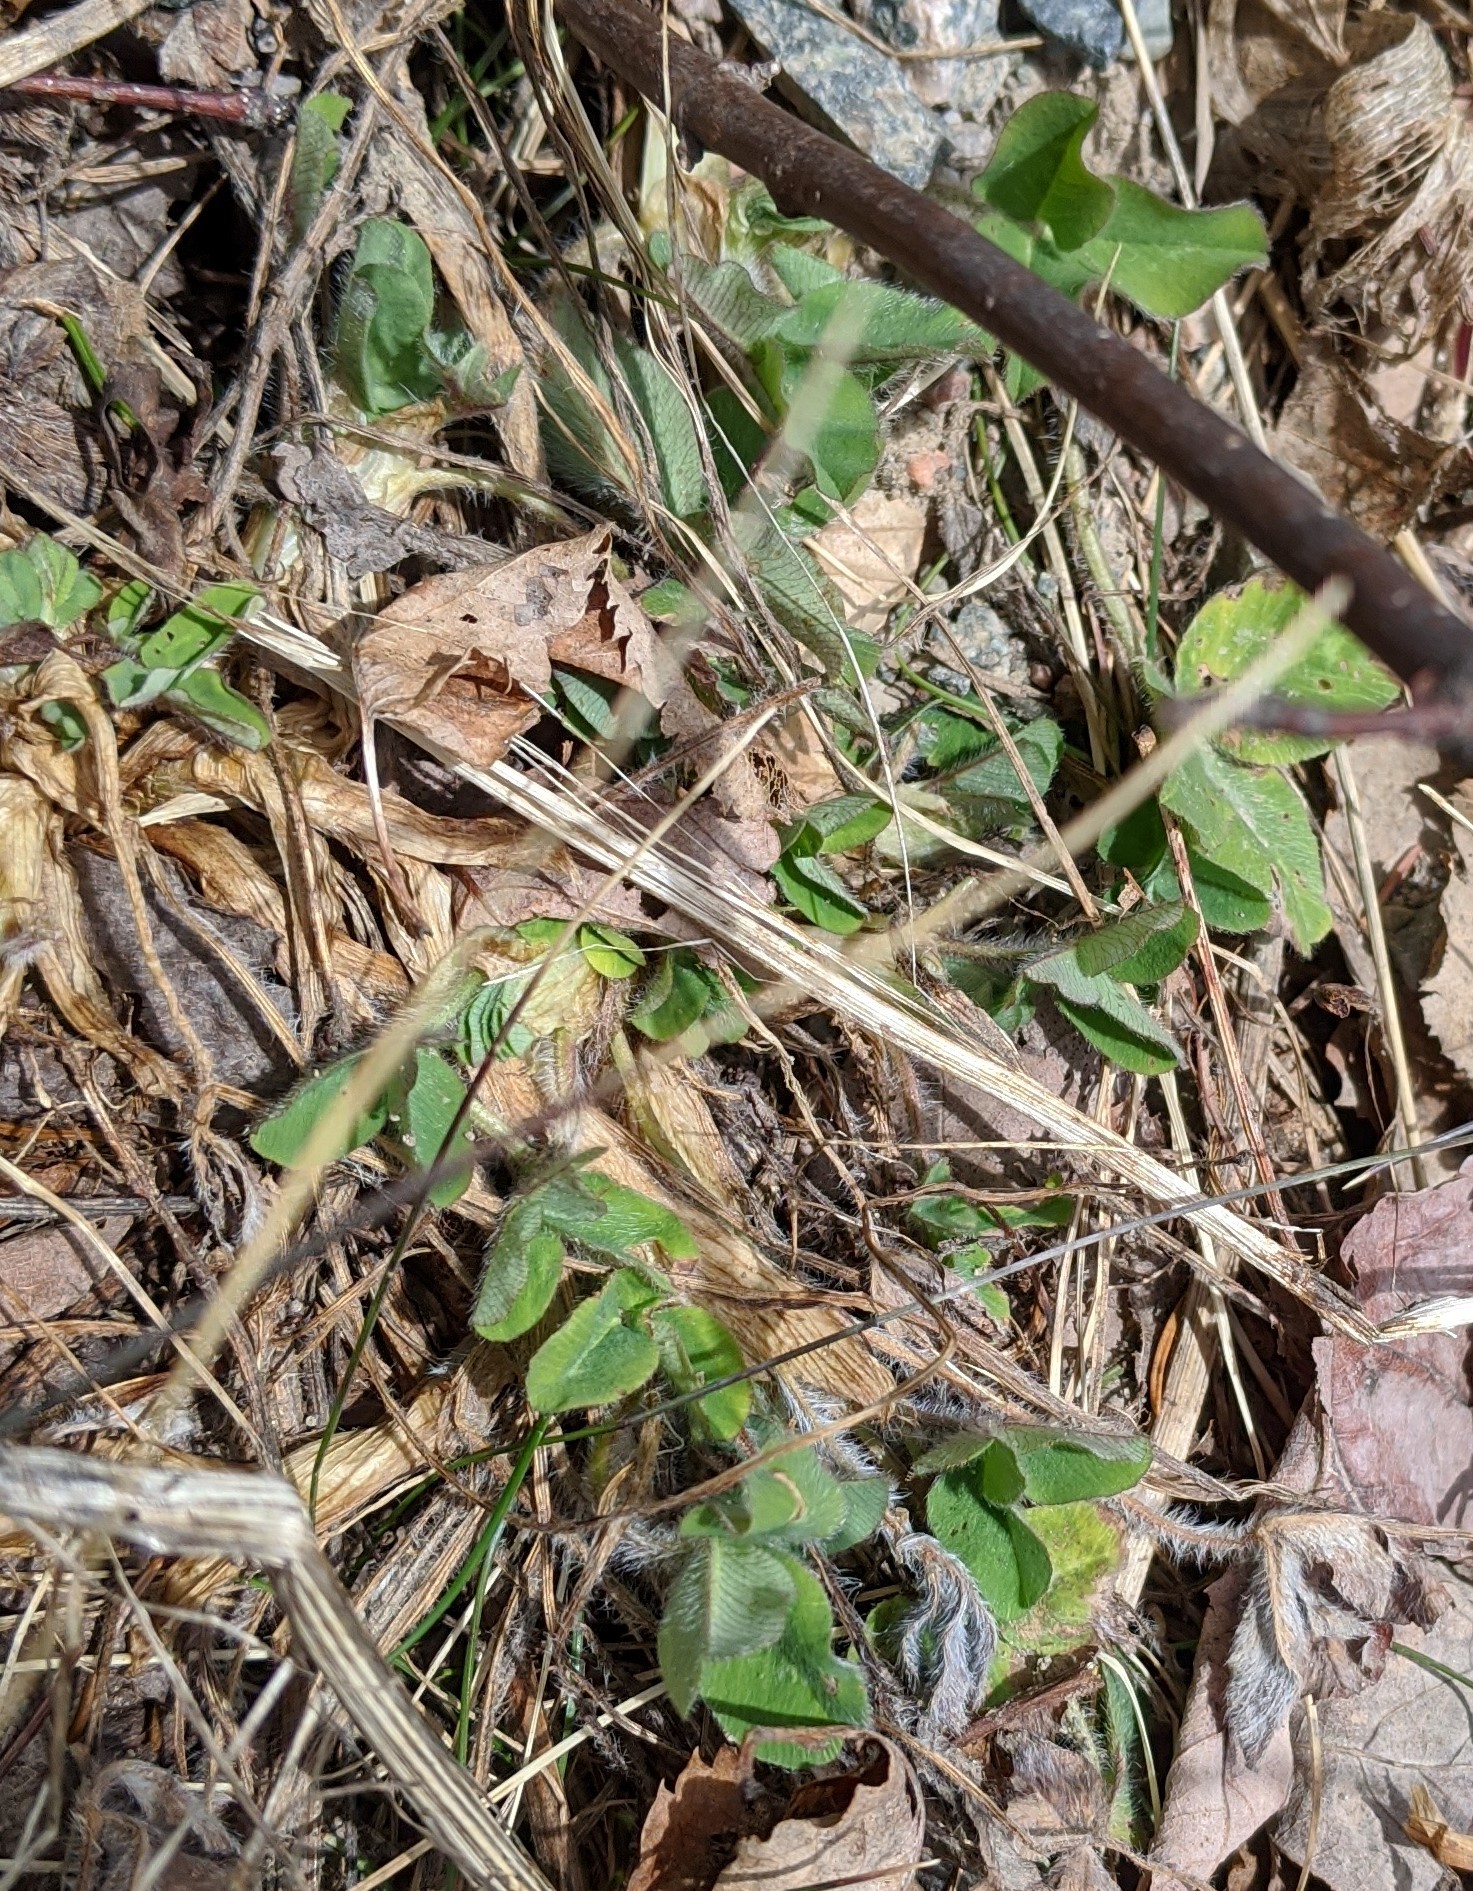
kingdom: Plantae
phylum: Tracheophyta
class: Magnoliopsida
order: Fabales
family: Fabaceae
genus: Trifolium
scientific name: Trifolium pratense
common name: Red clover
